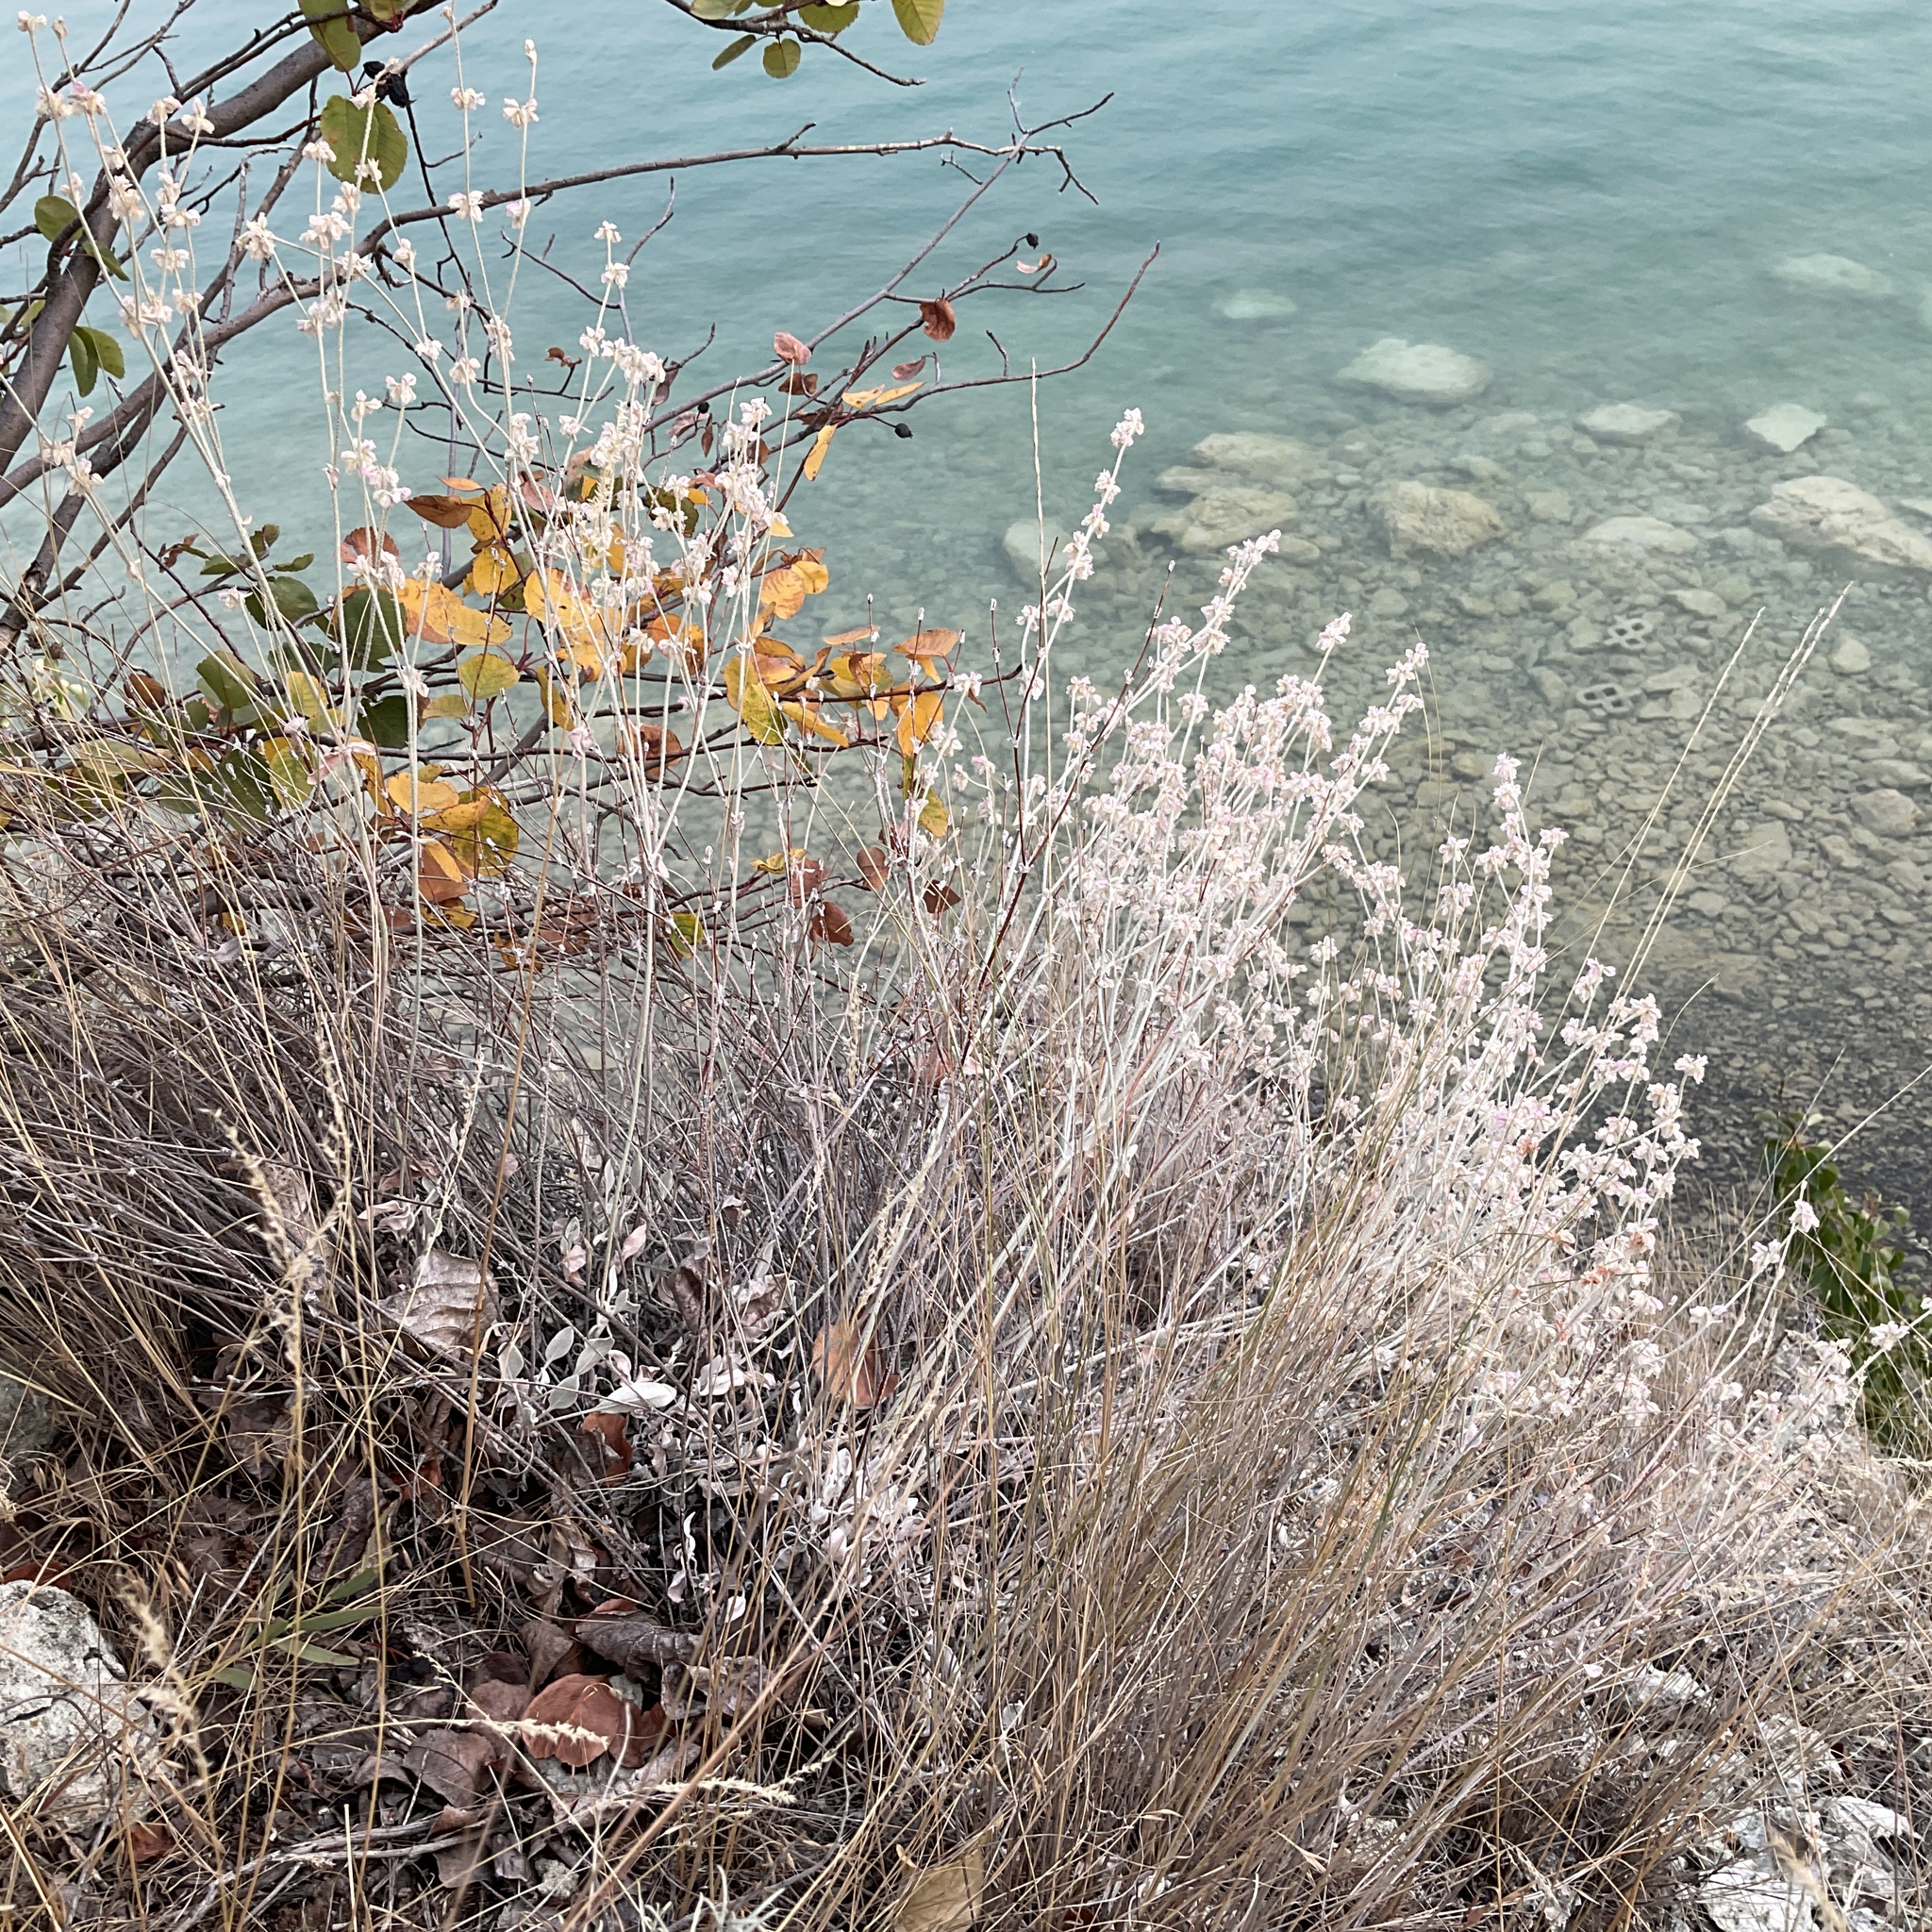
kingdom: Plantae
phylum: Tracheophyta
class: Magnoliopsida
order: Caryophyllales
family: Polygonaceae
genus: Eriogonum
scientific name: Eriogonum niveum
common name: Snow wild buckwheat
